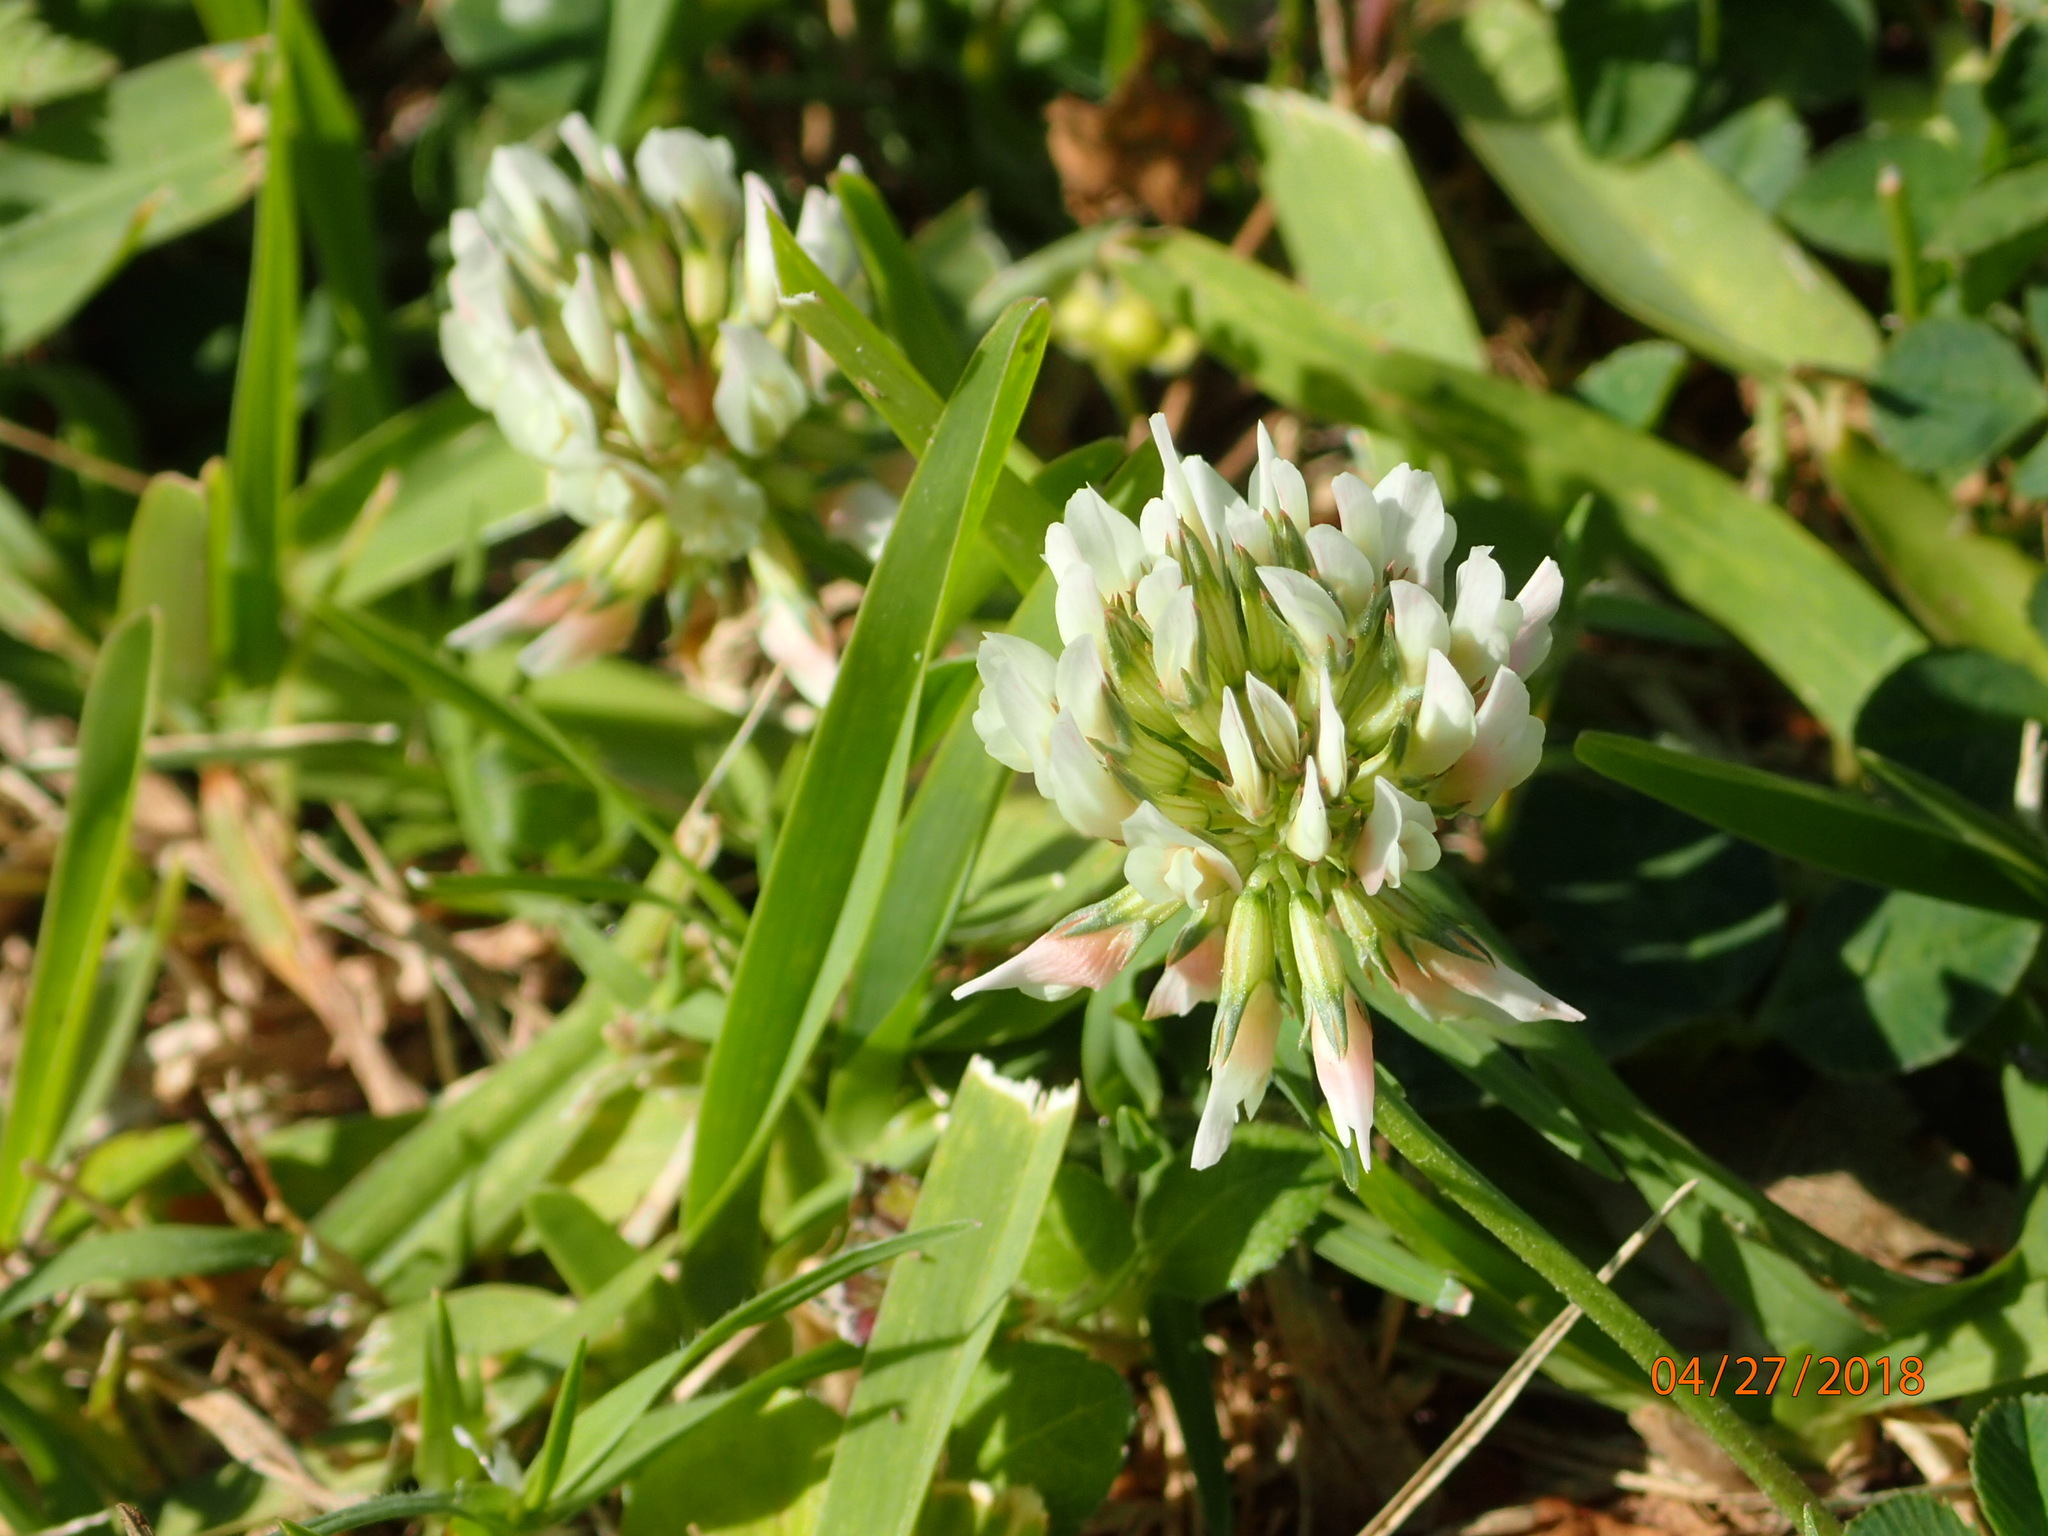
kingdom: Plantae
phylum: Tracheophyta
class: Magnoliopsida
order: Fabales
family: Fabaceae
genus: Trifolium
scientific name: Trifolium repens
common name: White clover
